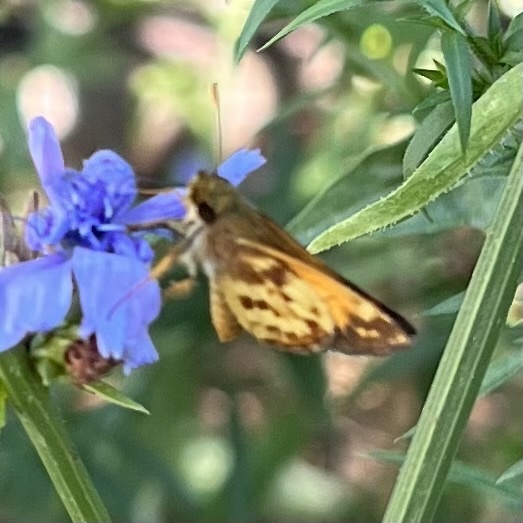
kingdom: Animalia
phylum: Arthropoda
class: Insecta
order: Lepidoptera
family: Hesperiidae
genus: Lon
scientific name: Lon zabulon
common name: Zabulon skipper
